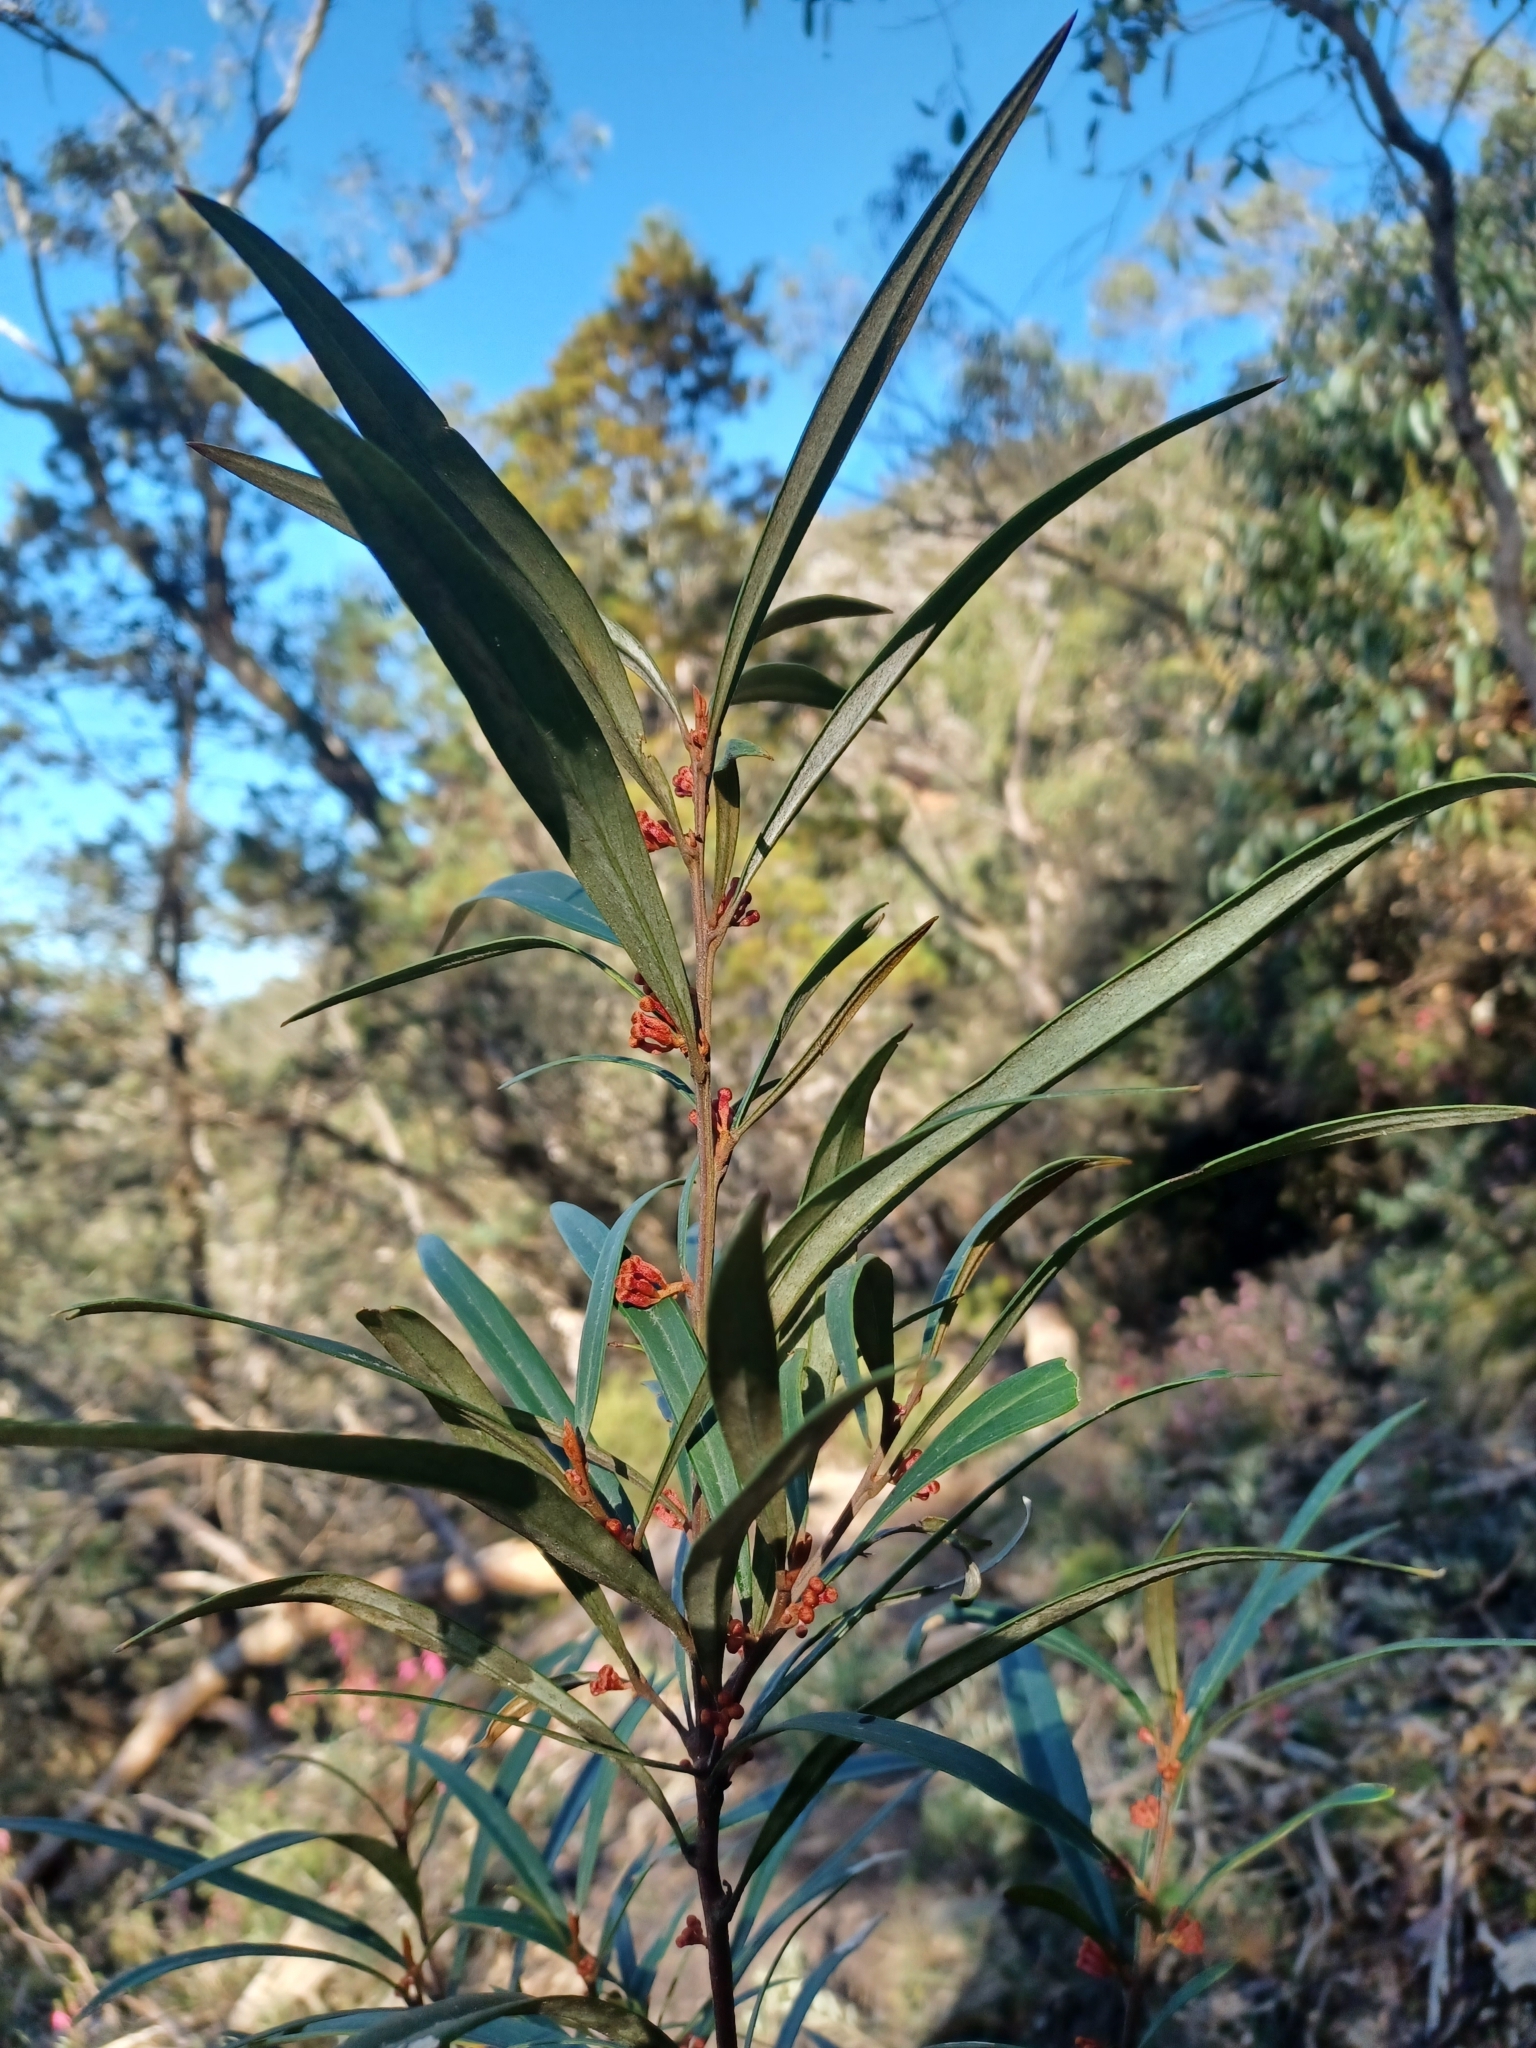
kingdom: Plantae
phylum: Tracheophyta
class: Magnoliopsida
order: Proteales
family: Proteaceae
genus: Grevillea
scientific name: Grevillea dimorpha
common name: Flame grevillea
